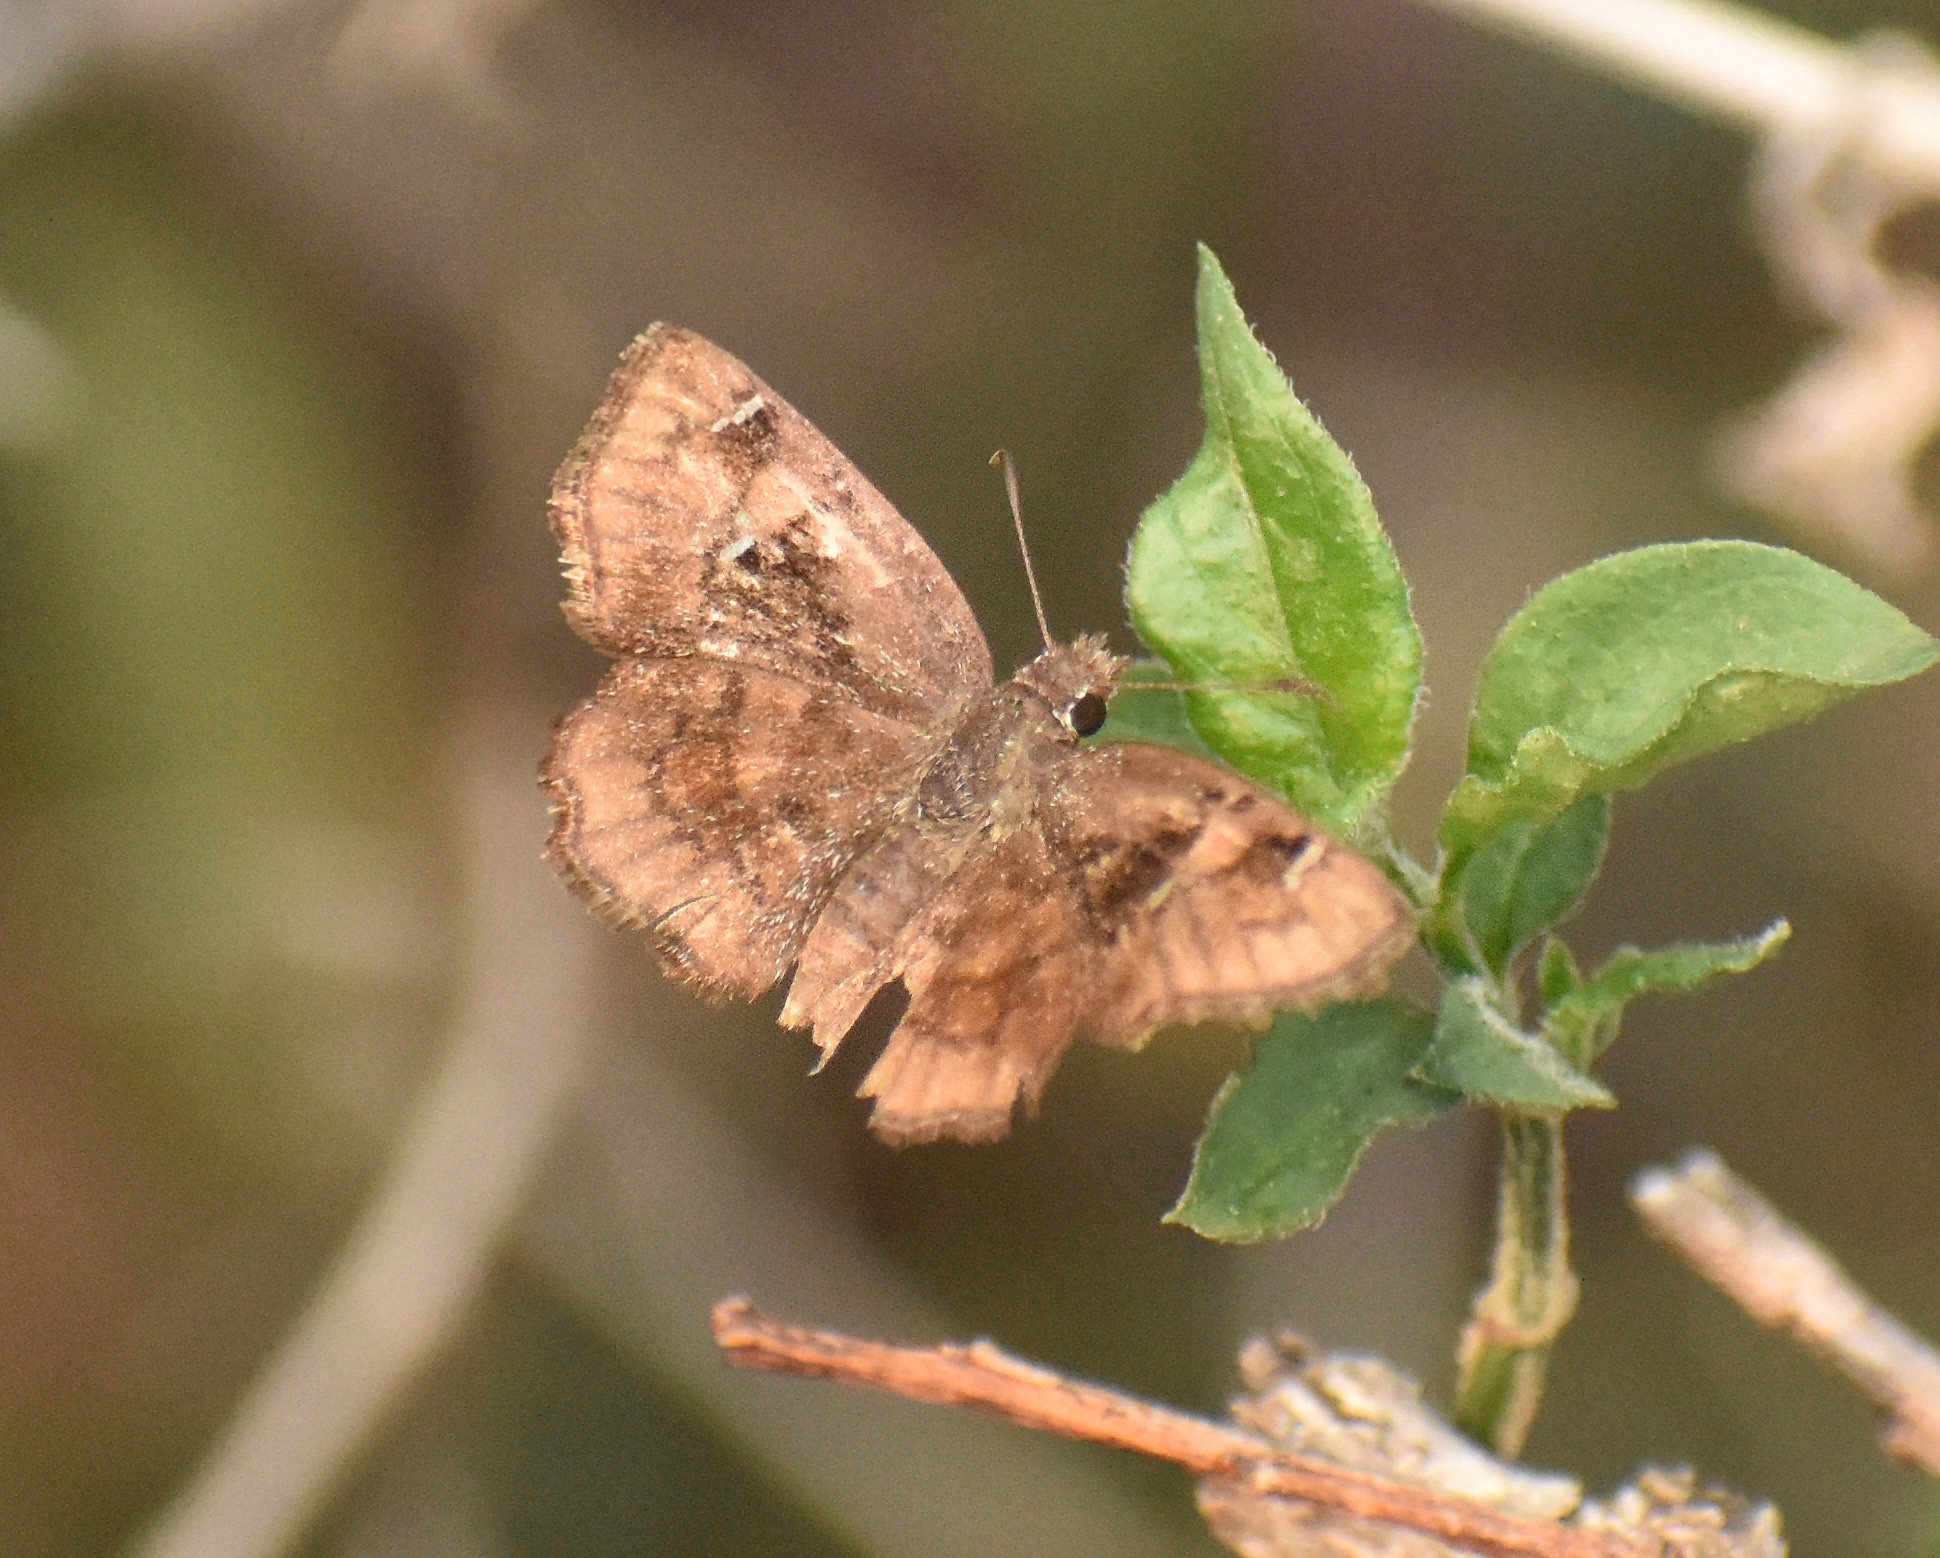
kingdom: Animalia
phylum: Arthropoda
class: Insecta
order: Lepidoptera
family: Hesperiidae
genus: Eretis
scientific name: Eretis umbra
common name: Small marbled elf
